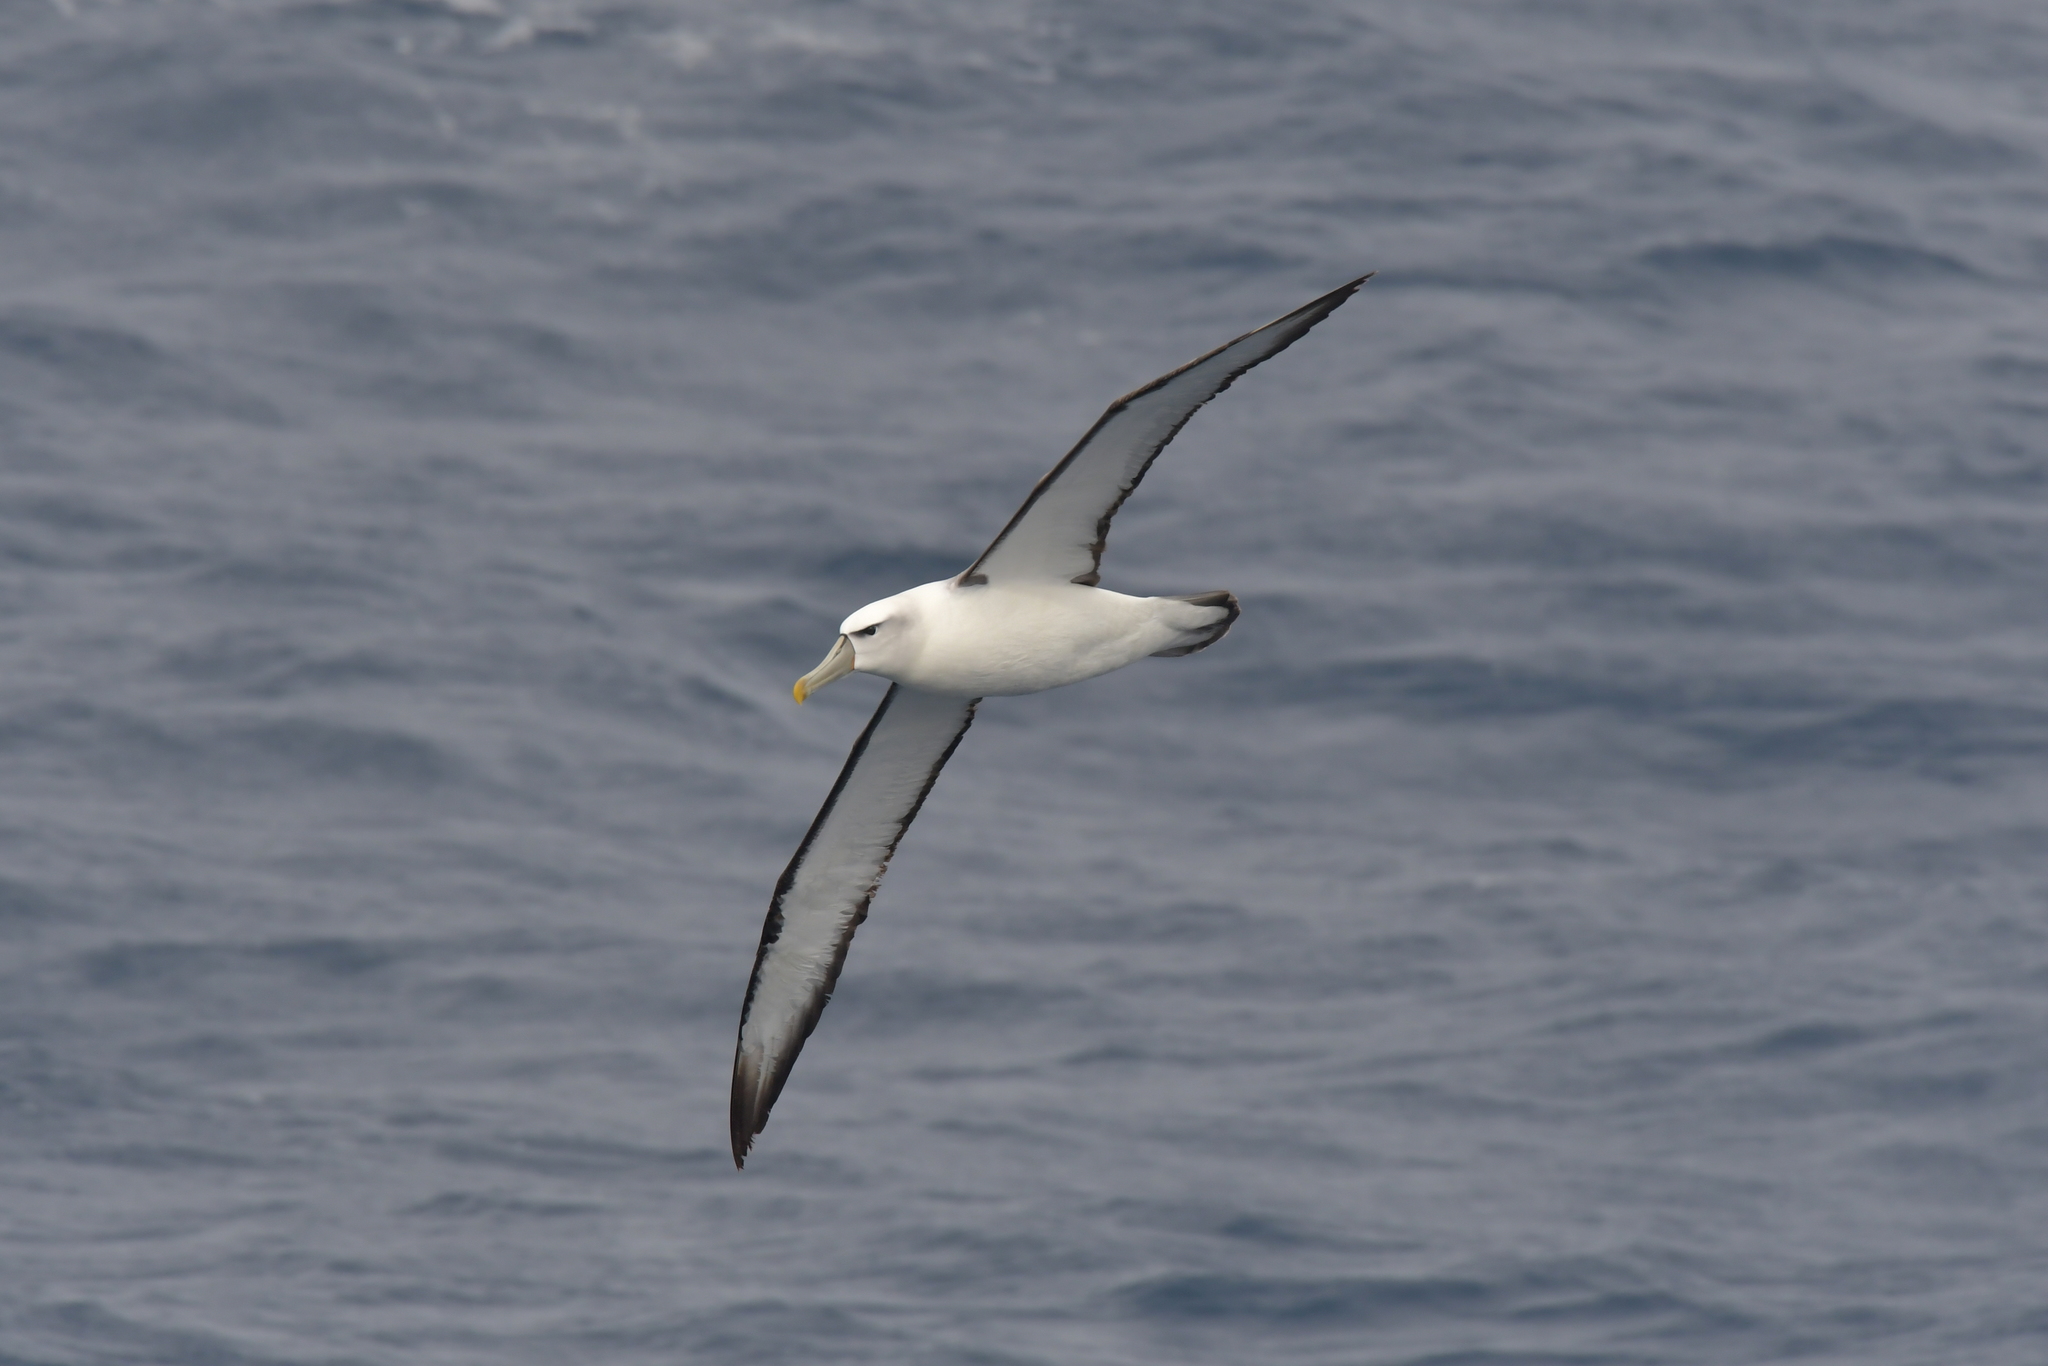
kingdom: Animalia
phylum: Chordata
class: Aves
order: Procellariiformes
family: Diomedeidae
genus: Thalassarche
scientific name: Thalassarche cauta
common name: Shy albatross
